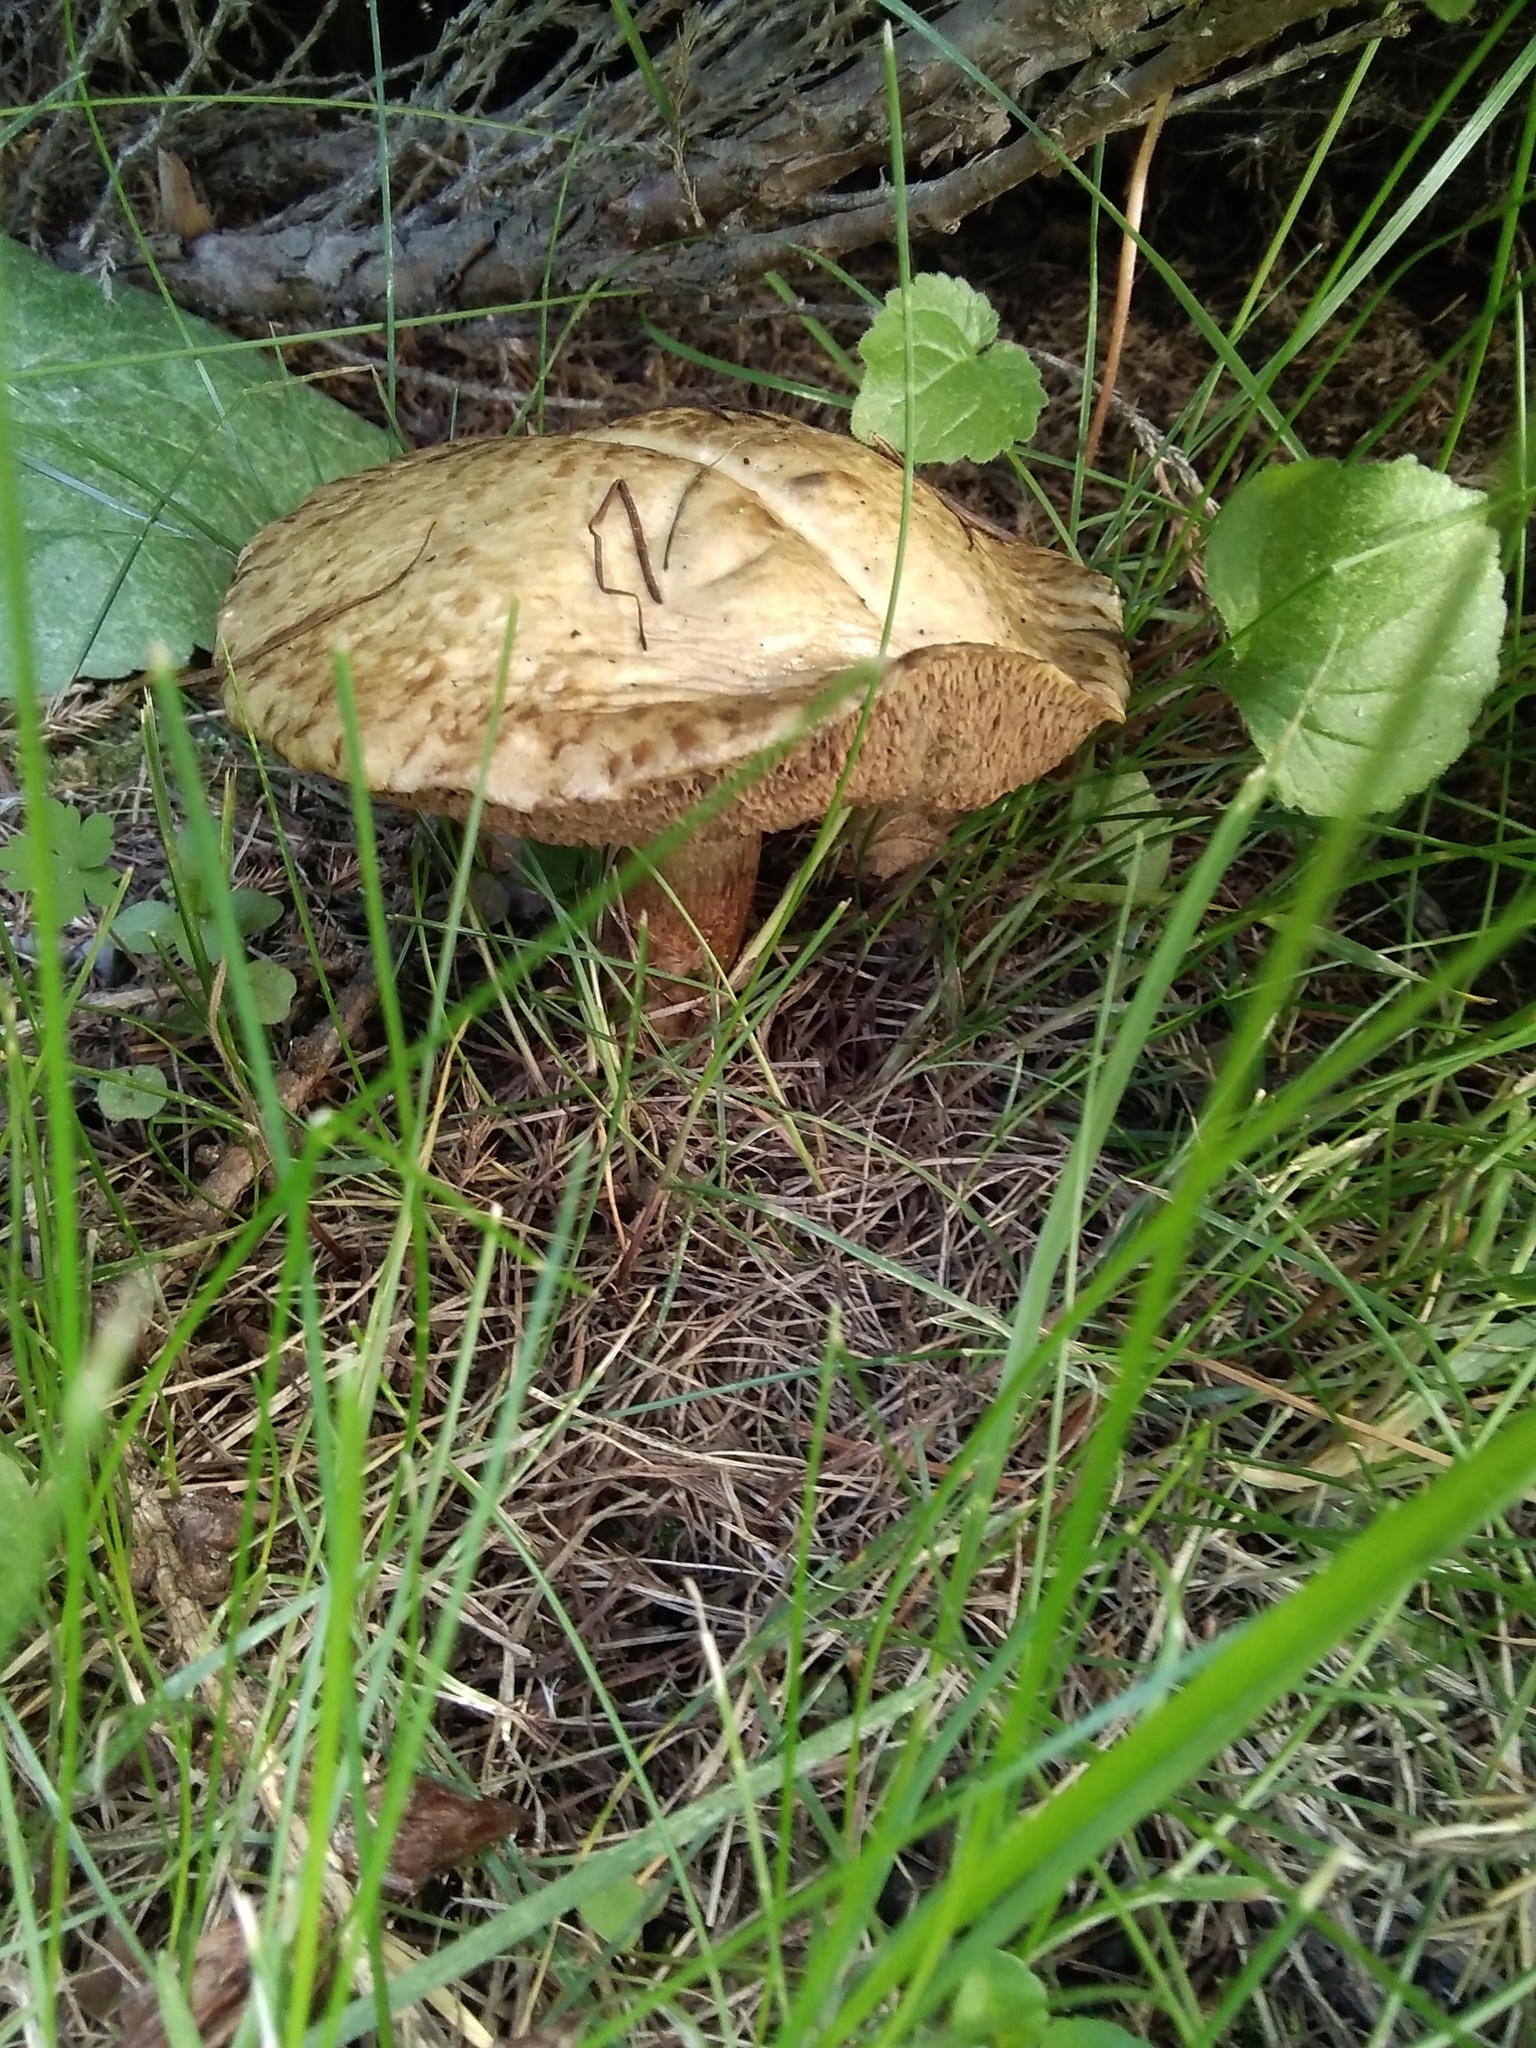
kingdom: Fungi
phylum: Basidiomycota
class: Agaricomycetes
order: Boletales
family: Suillaceae
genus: Suillus
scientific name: Suillus viscidus
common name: Sticky bolete
